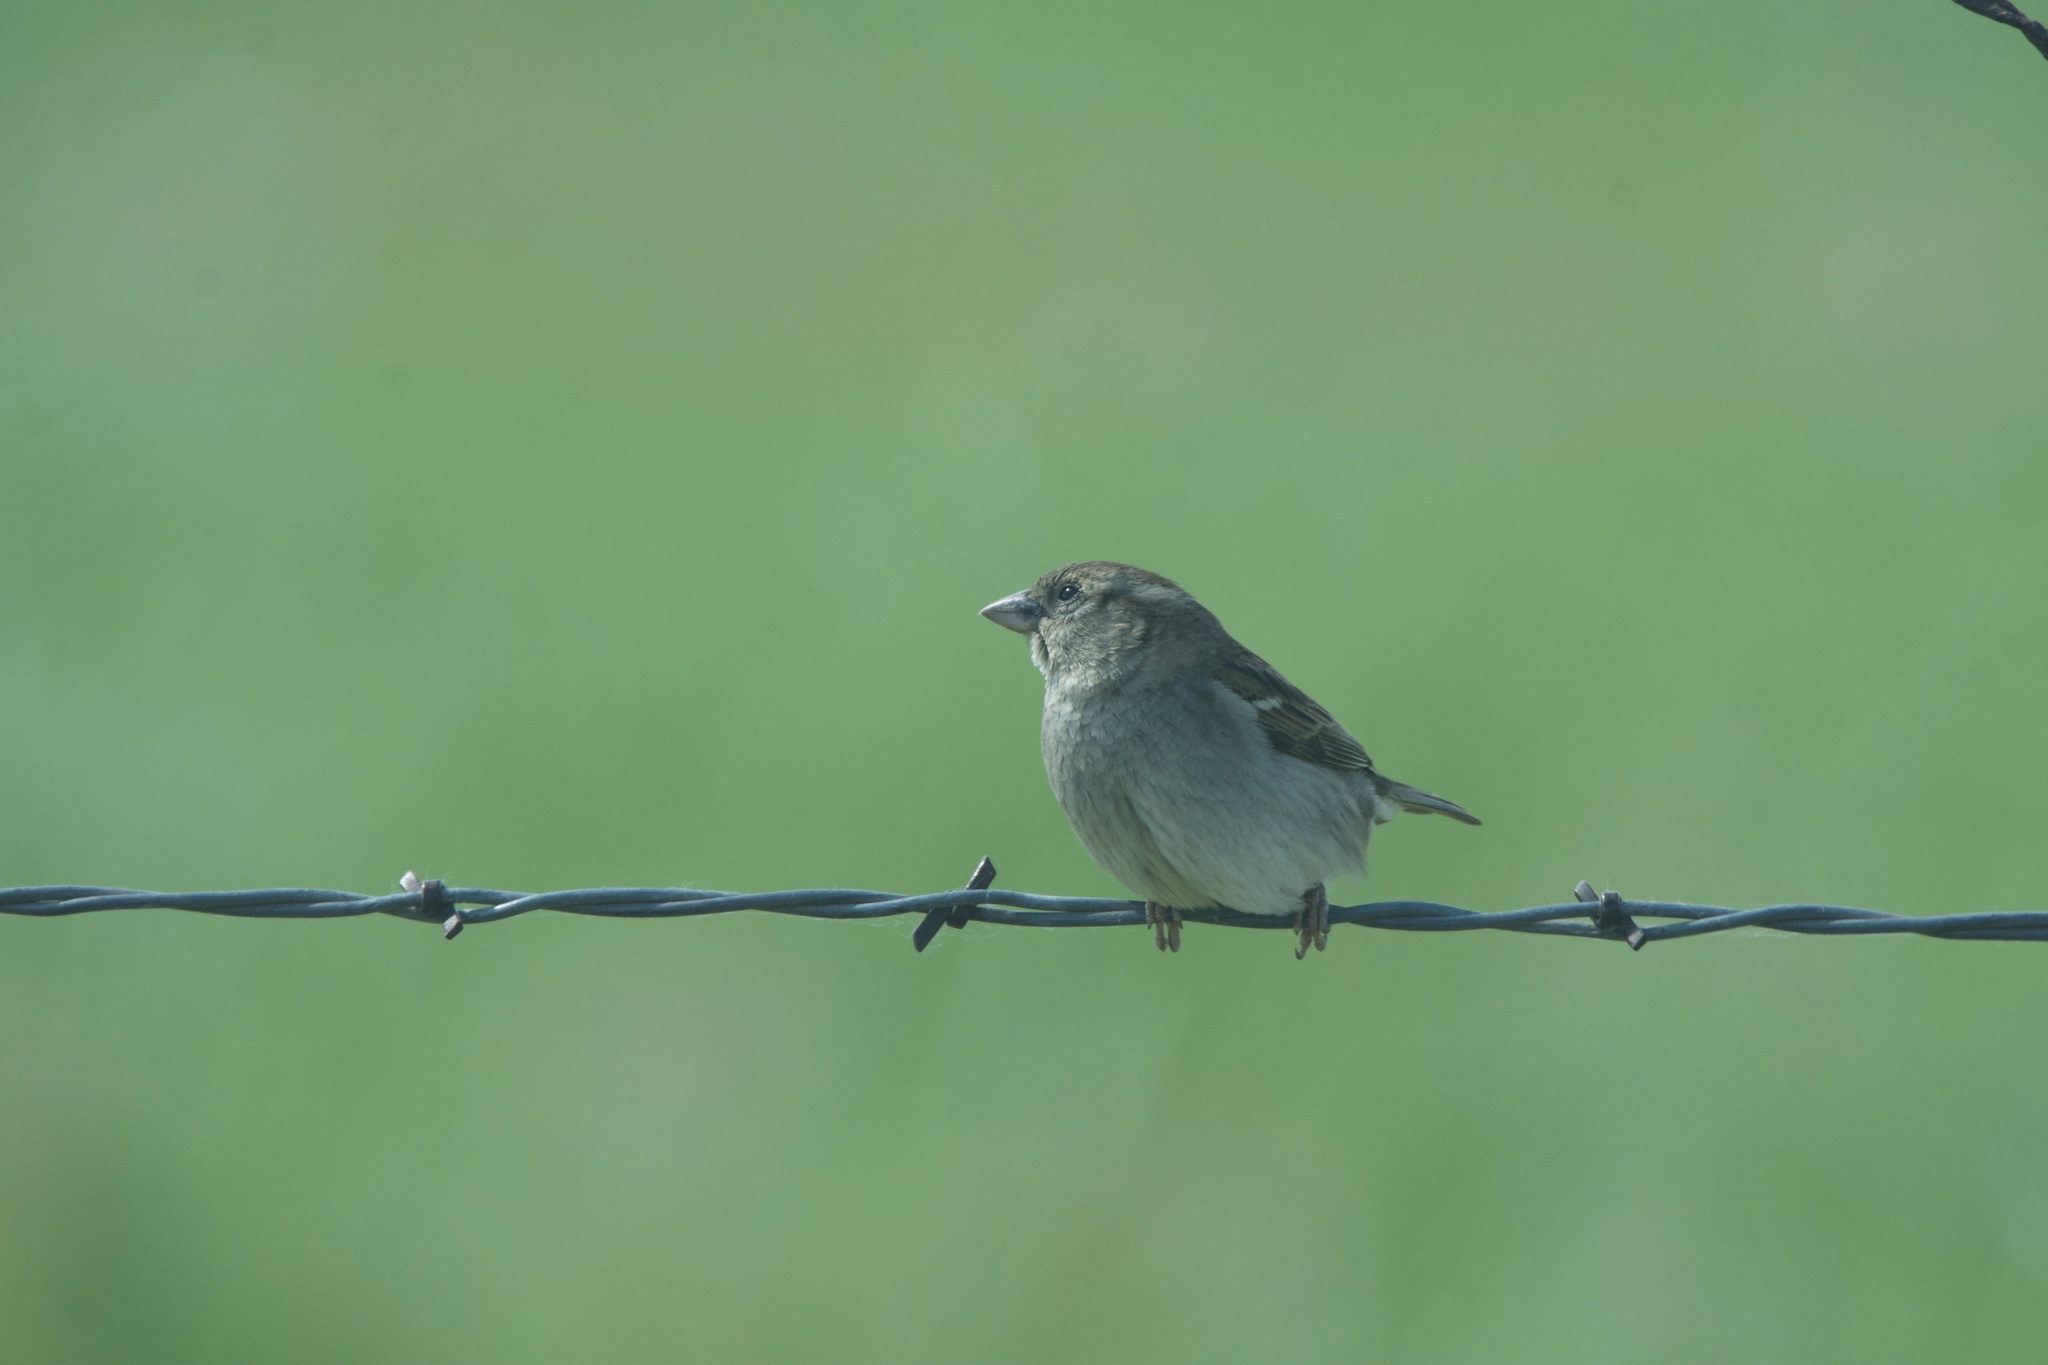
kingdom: Animalia
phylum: Chordata
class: Aves
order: Passeriformes
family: Passeridae
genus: Passer
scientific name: Passer domesticus
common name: House sparrow
